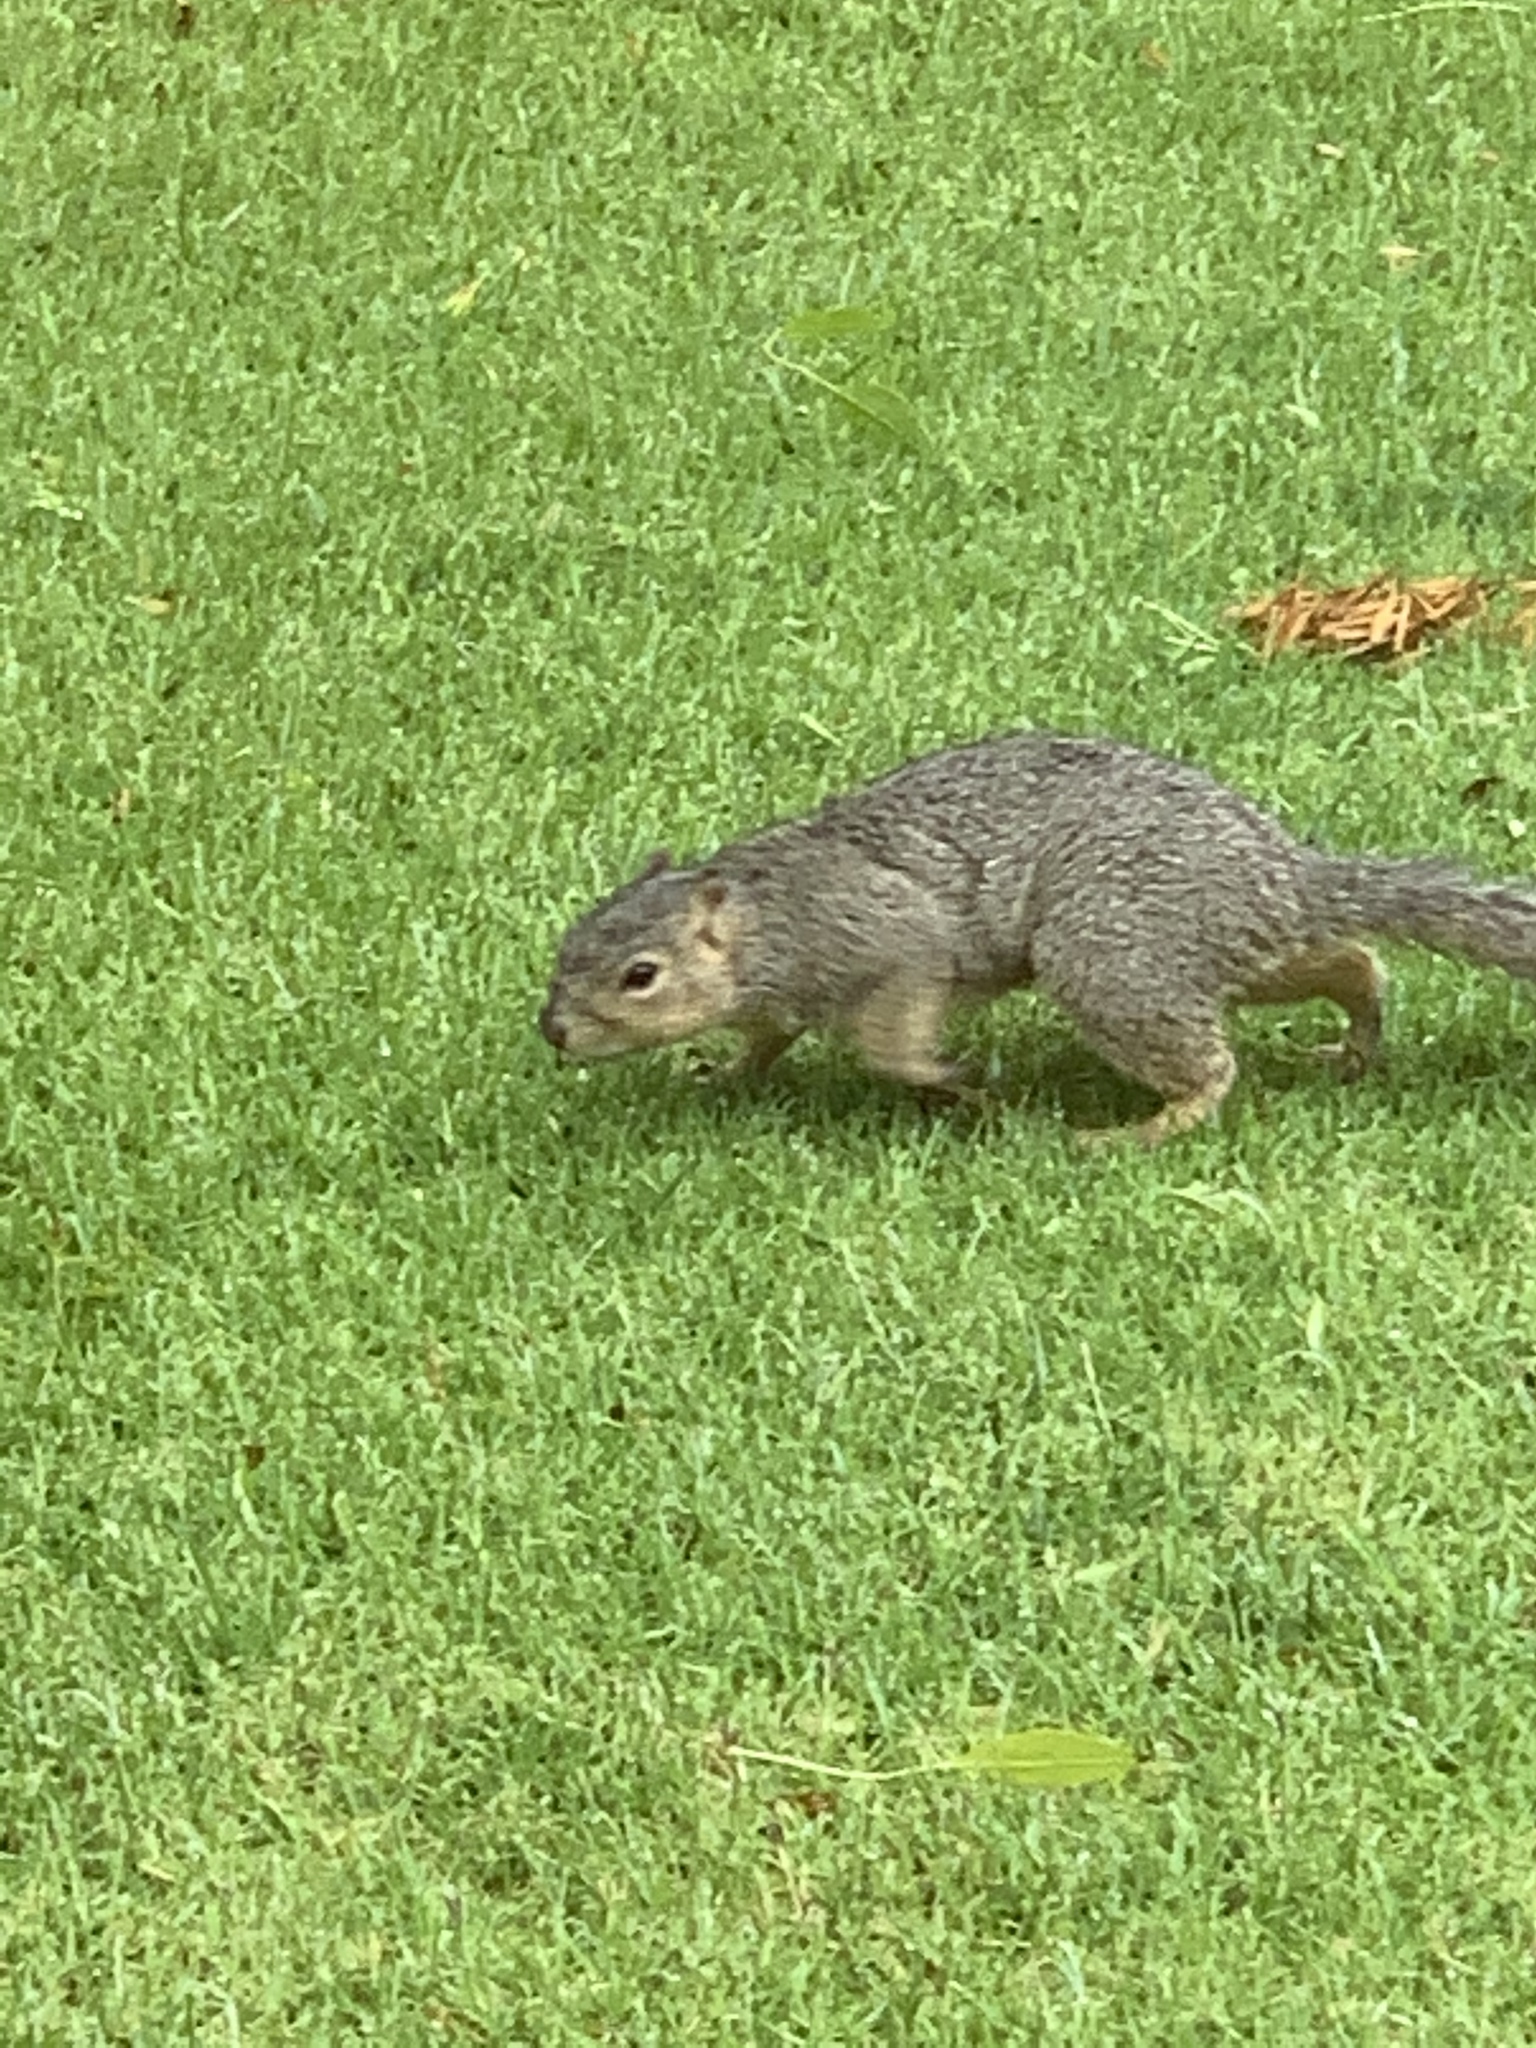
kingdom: Animalia
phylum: Chordata
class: Mammalia
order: Rodentia
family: Sciuridae
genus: Sciurus
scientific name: Sciurus niger
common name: Fox squirrel
